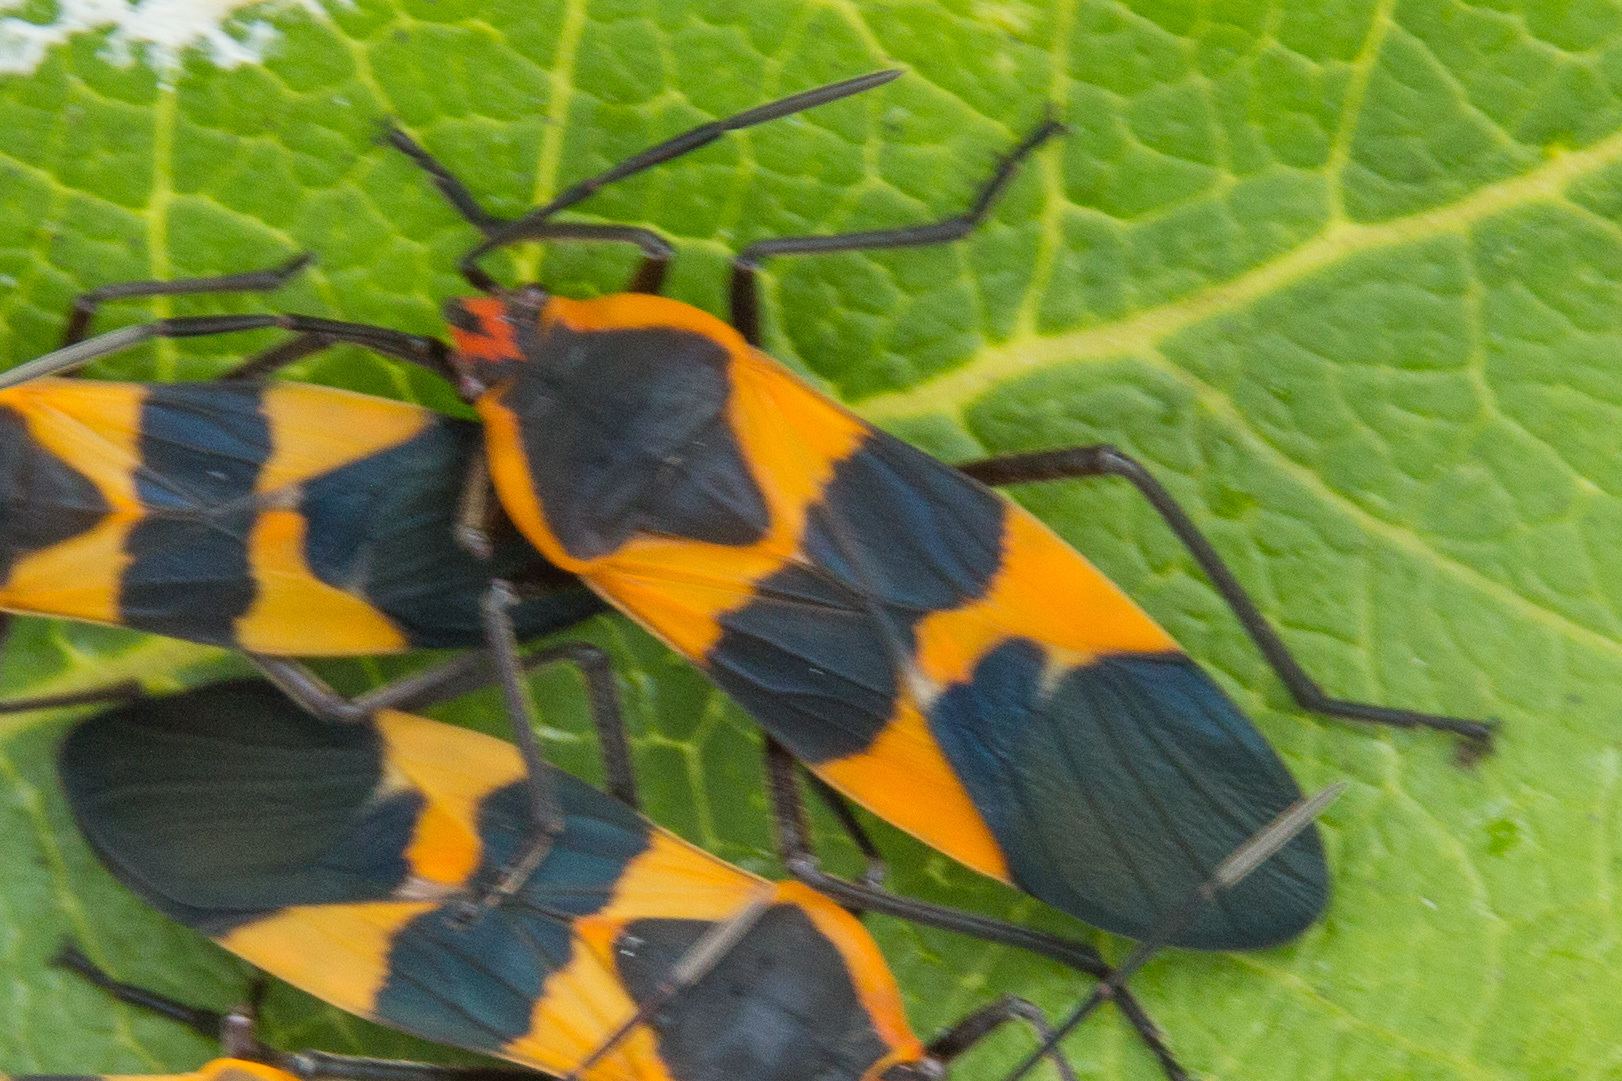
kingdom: Animalia
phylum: Arthropoda
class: Insecta
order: Hemiptera
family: Lygaeidae
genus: Oncopeltus
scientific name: Oncopeltus fasciatus
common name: Large milkweed bug
